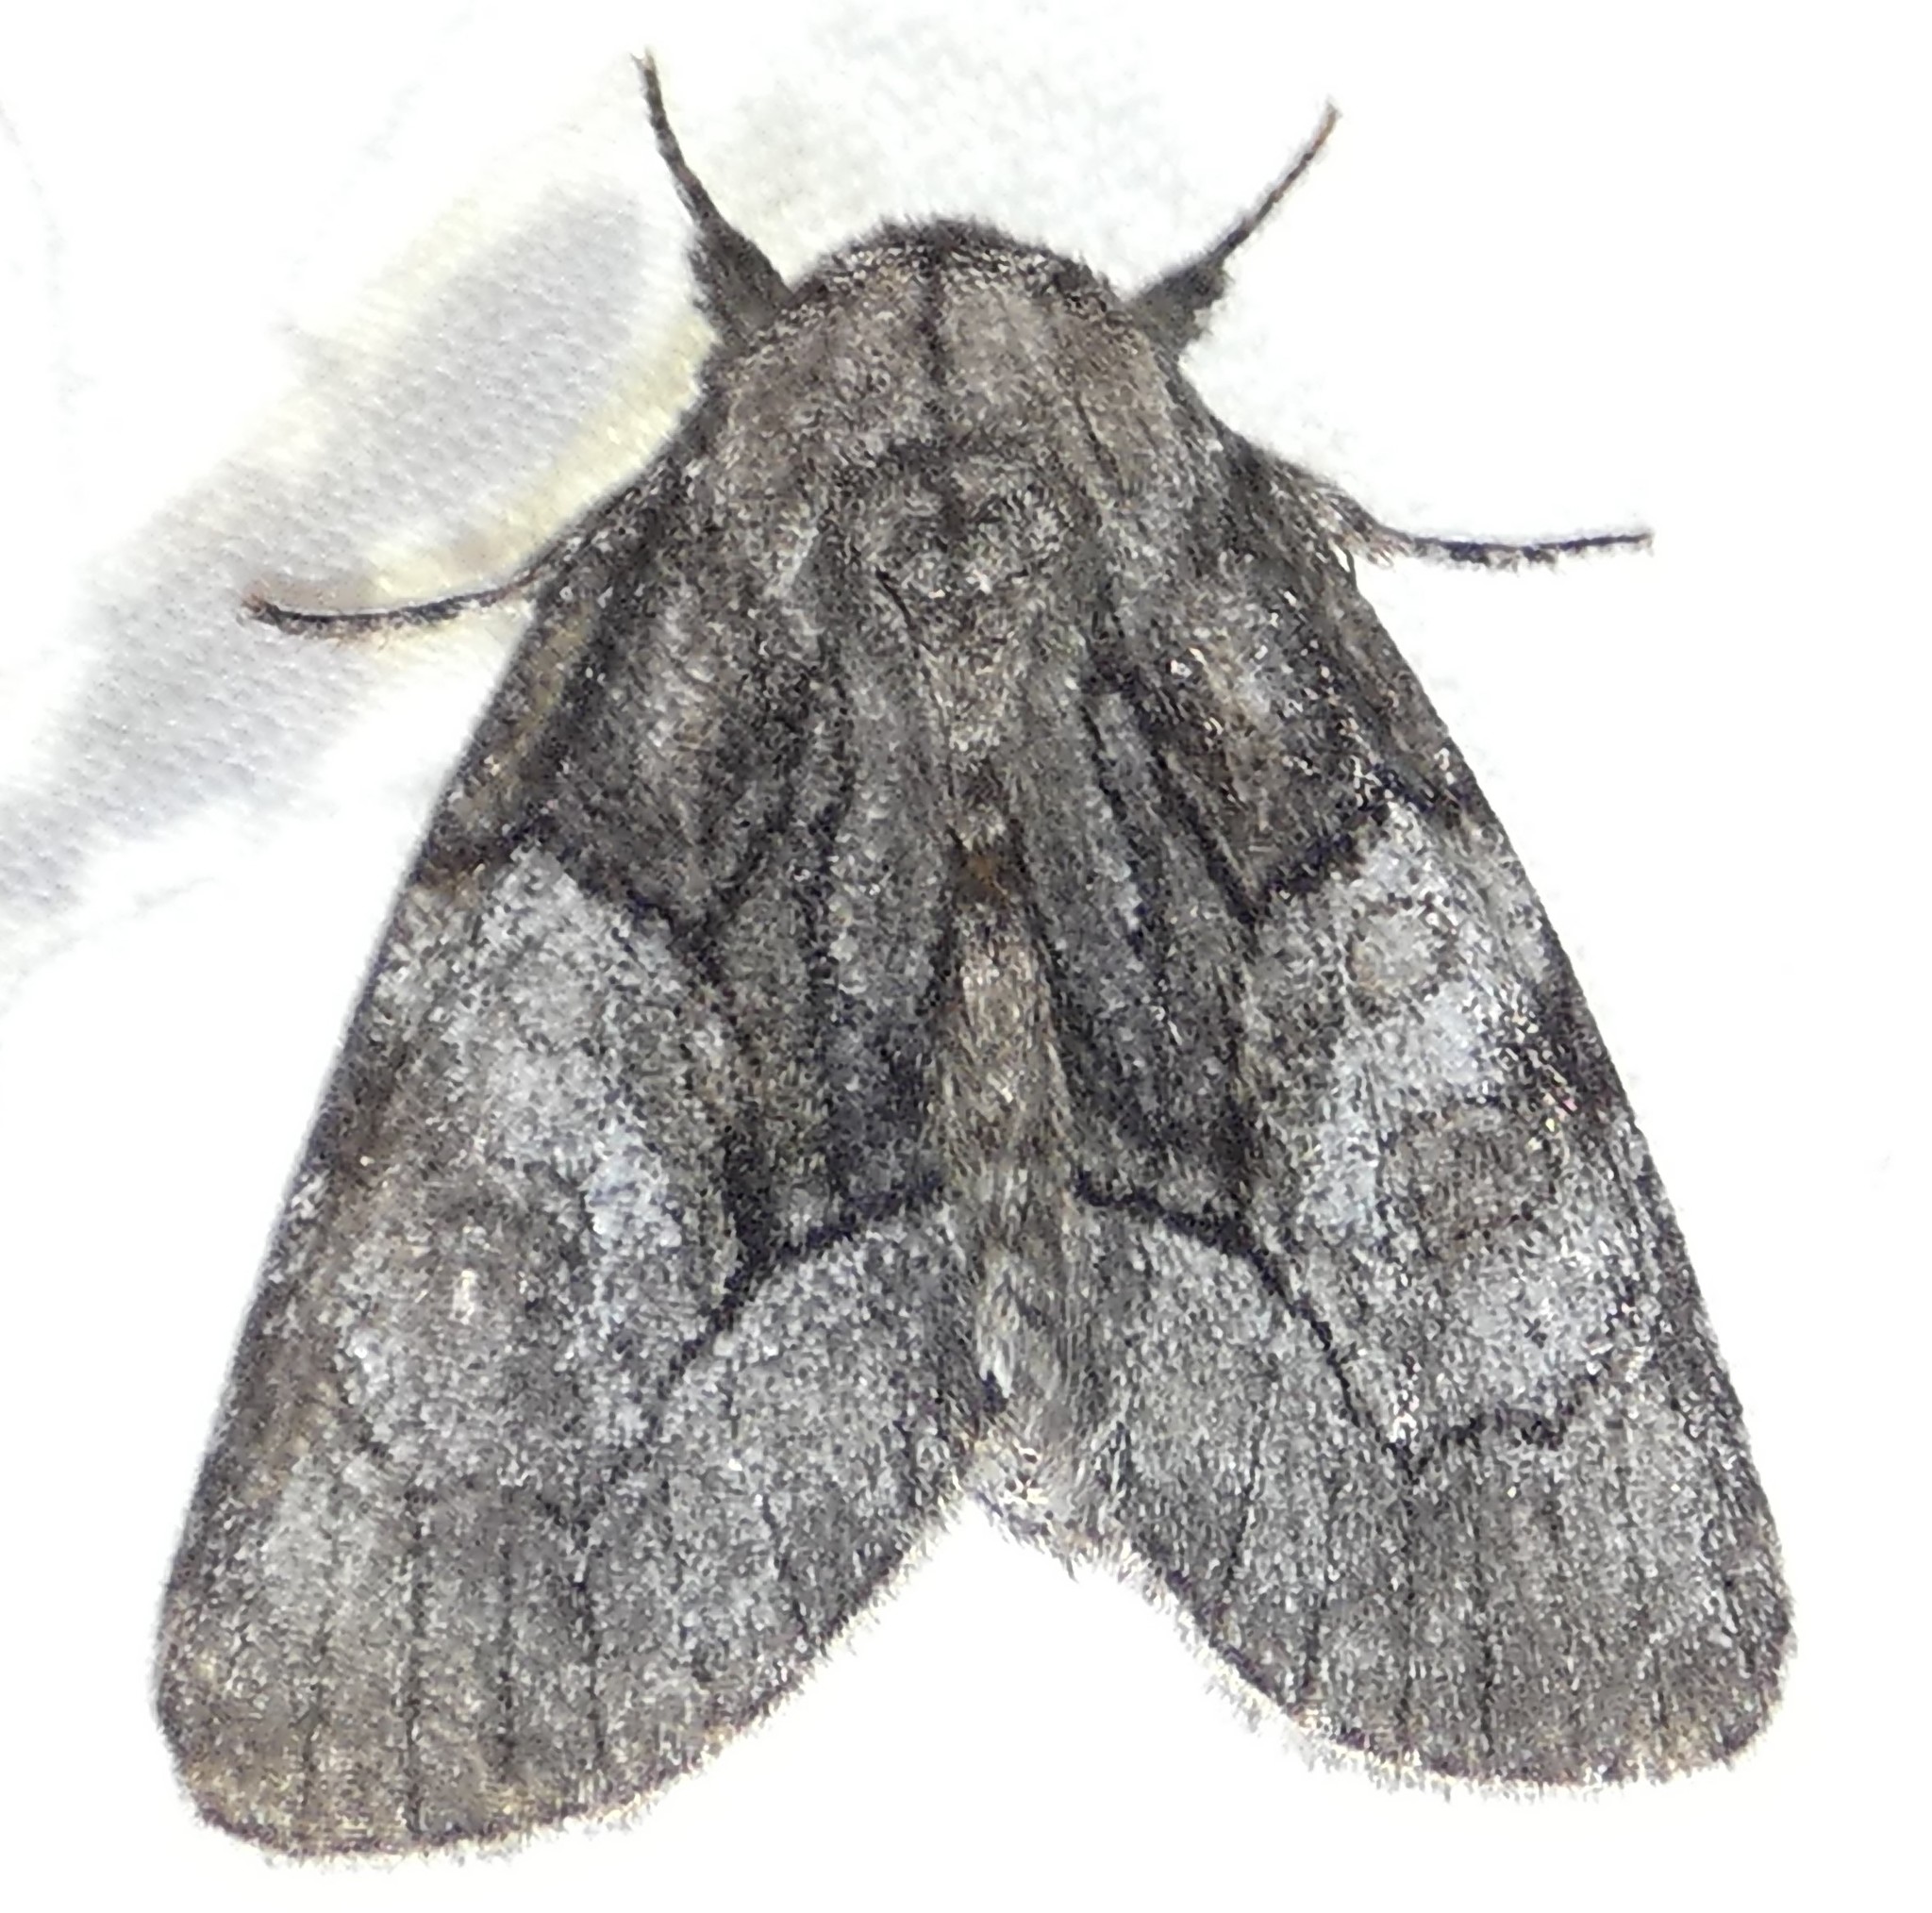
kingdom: Animalia
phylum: Arthropoda
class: Insecta
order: Lepidoptera
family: Noctuidae
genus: Raphia
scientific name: Raphia frater
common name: Brother
